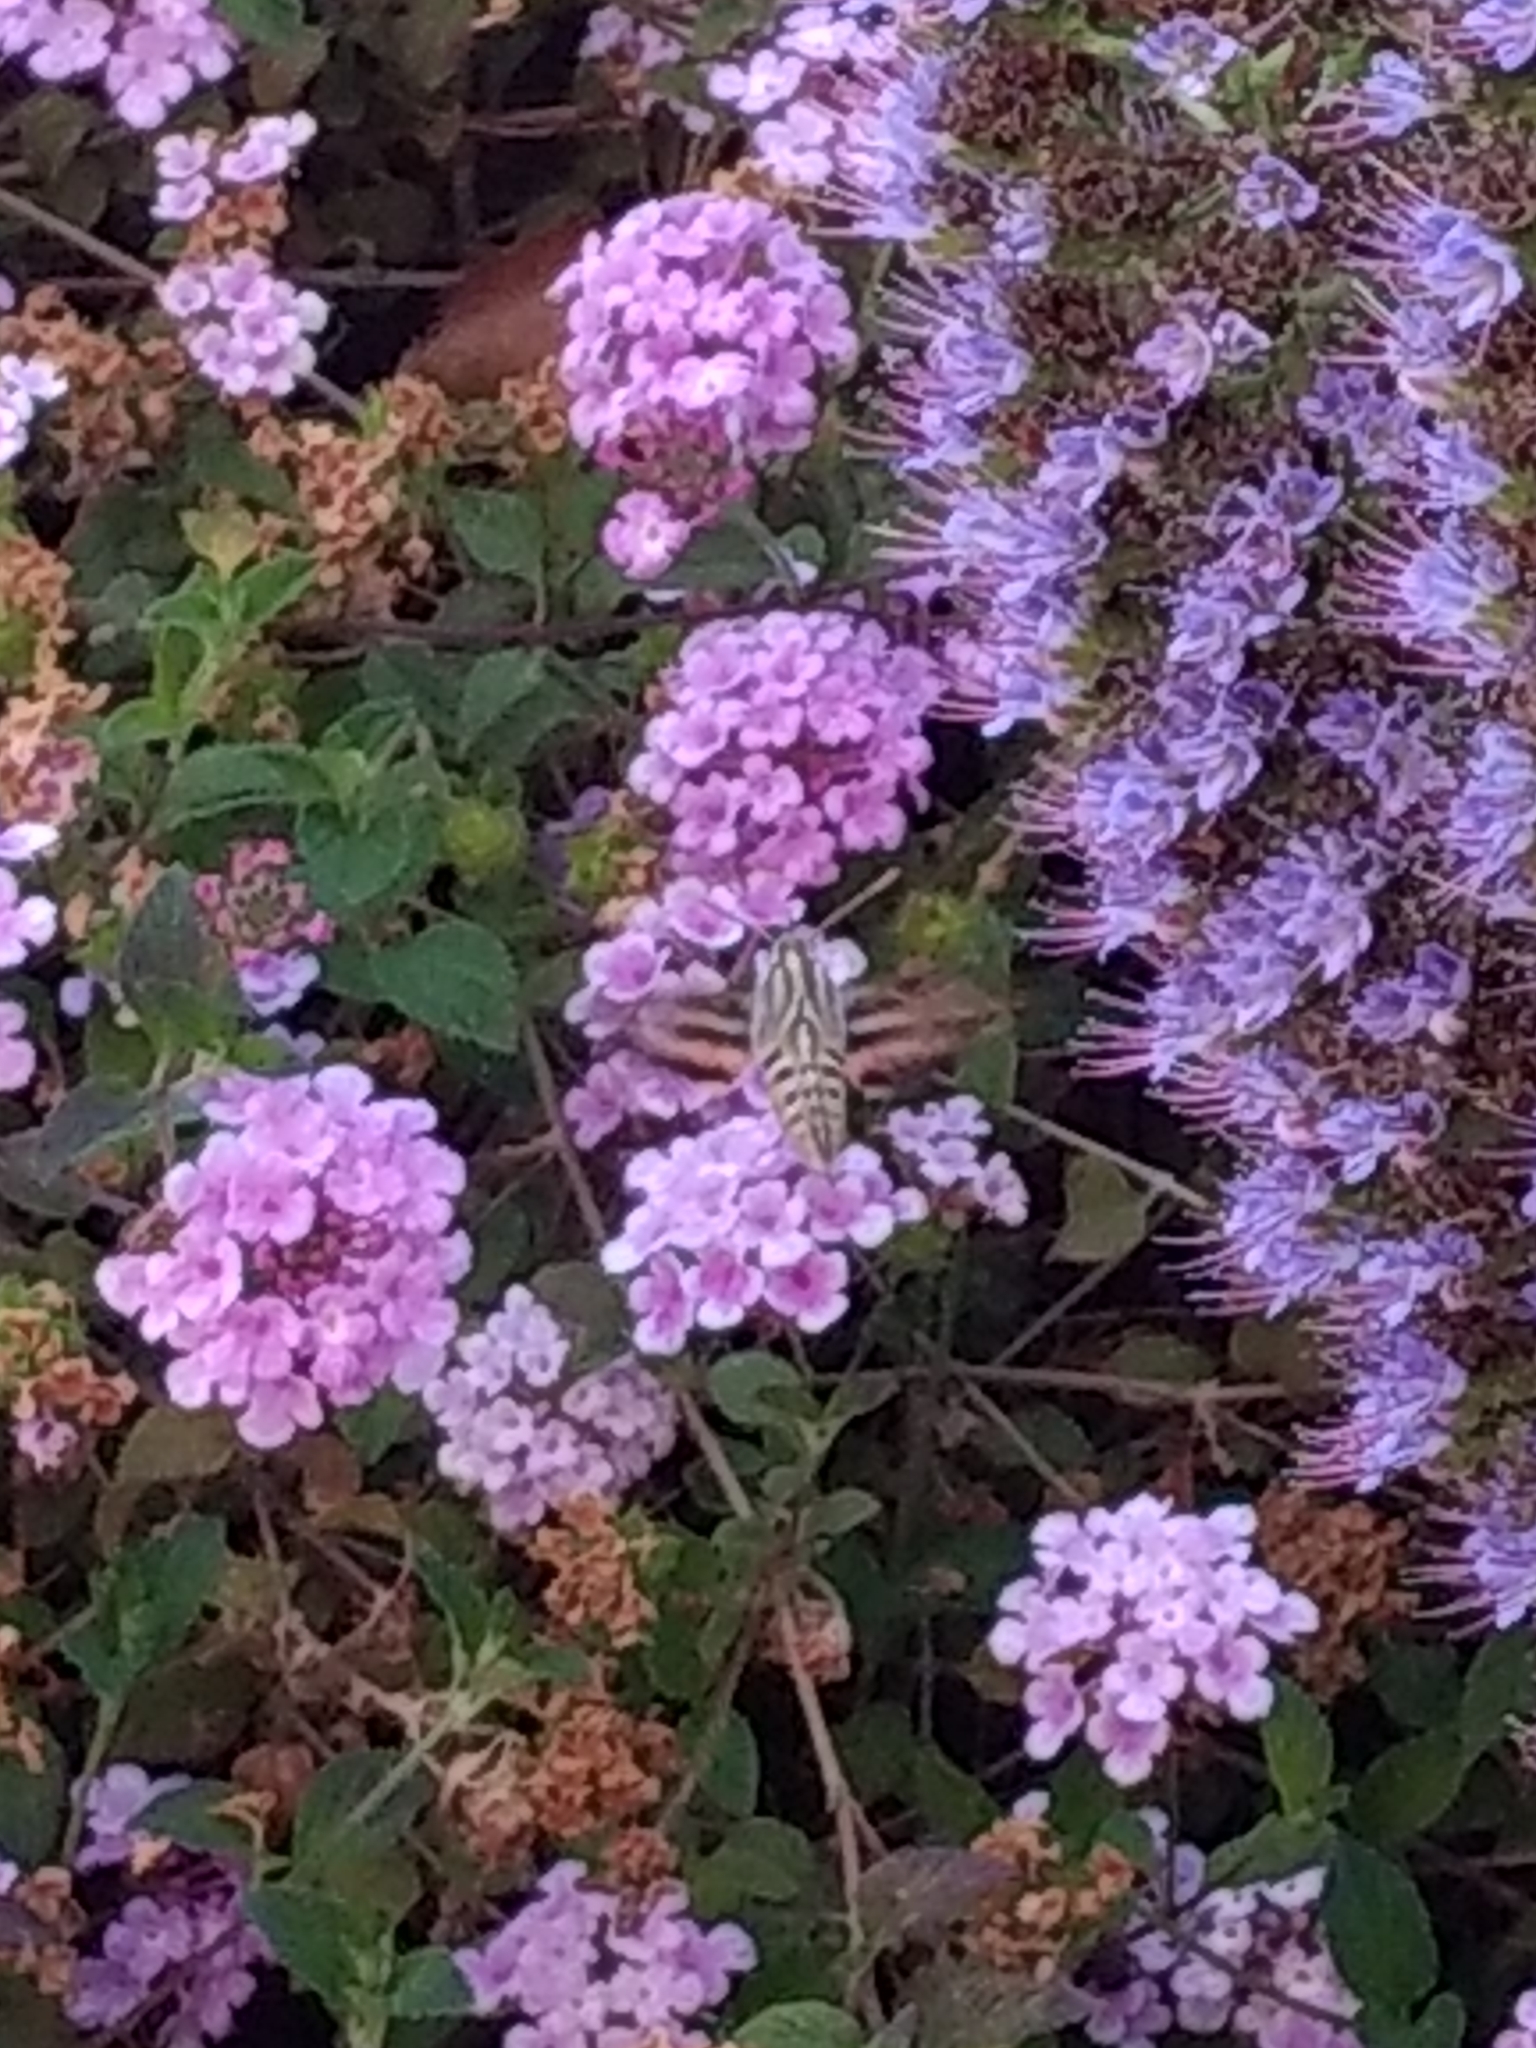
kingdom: Animalia
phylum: Arthropoda
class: Insecta
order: Lepidoptera
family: Sphingidae
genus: Hyles
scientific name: Hyles lineata
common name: White-lined sphinx
